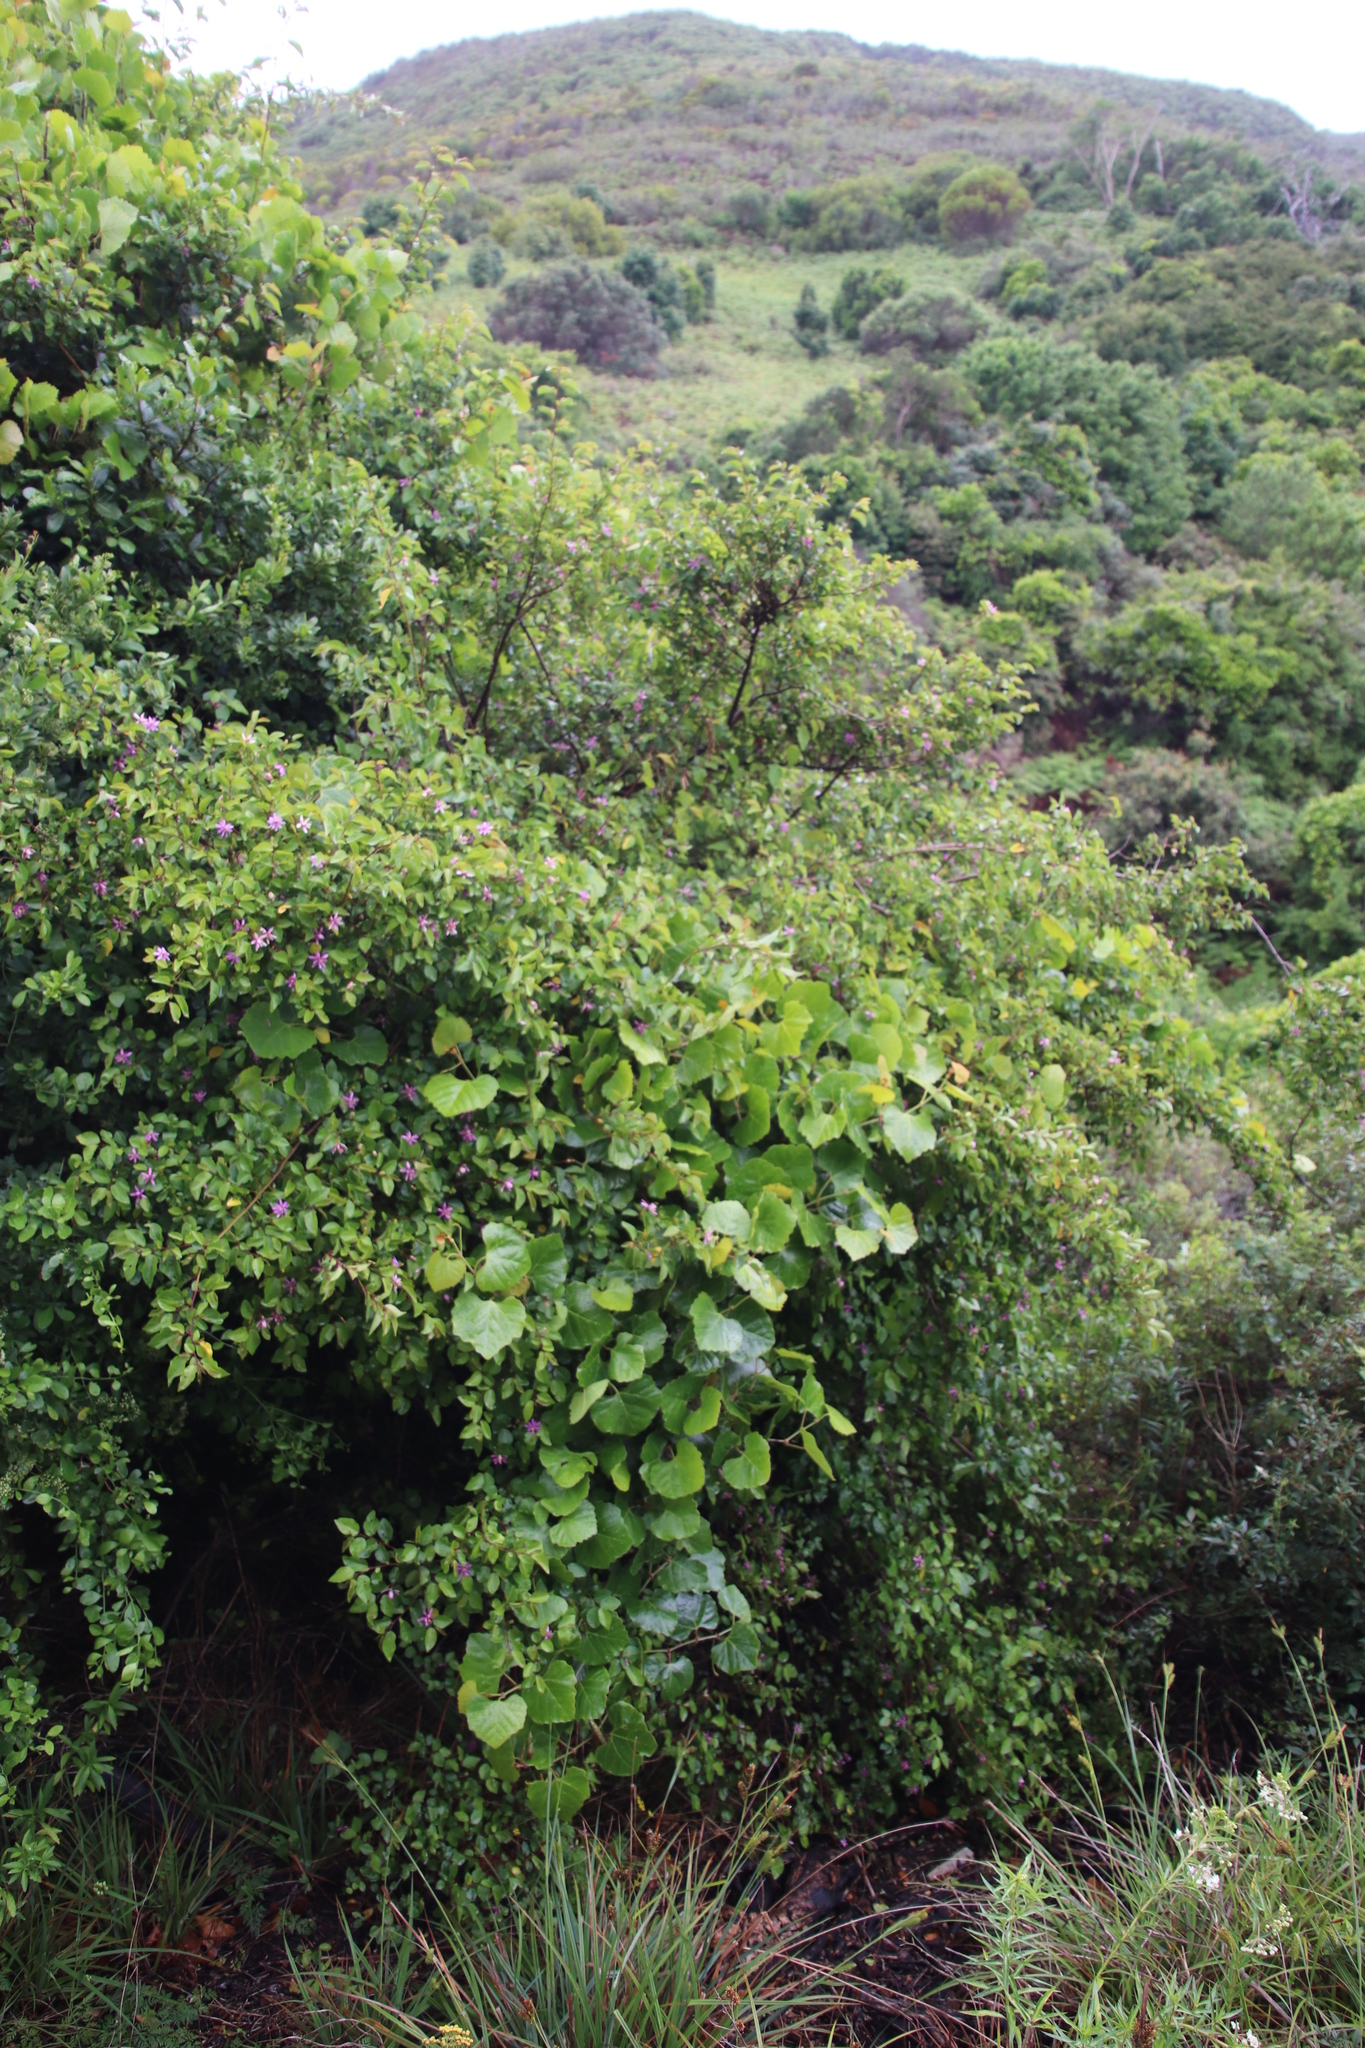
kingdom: Plantae
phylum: Tracheophyta
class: Magnoliopsida
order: Vitales
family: Vitaceae
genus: Rhoicissus
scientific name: Rhoicissus tomentosa
